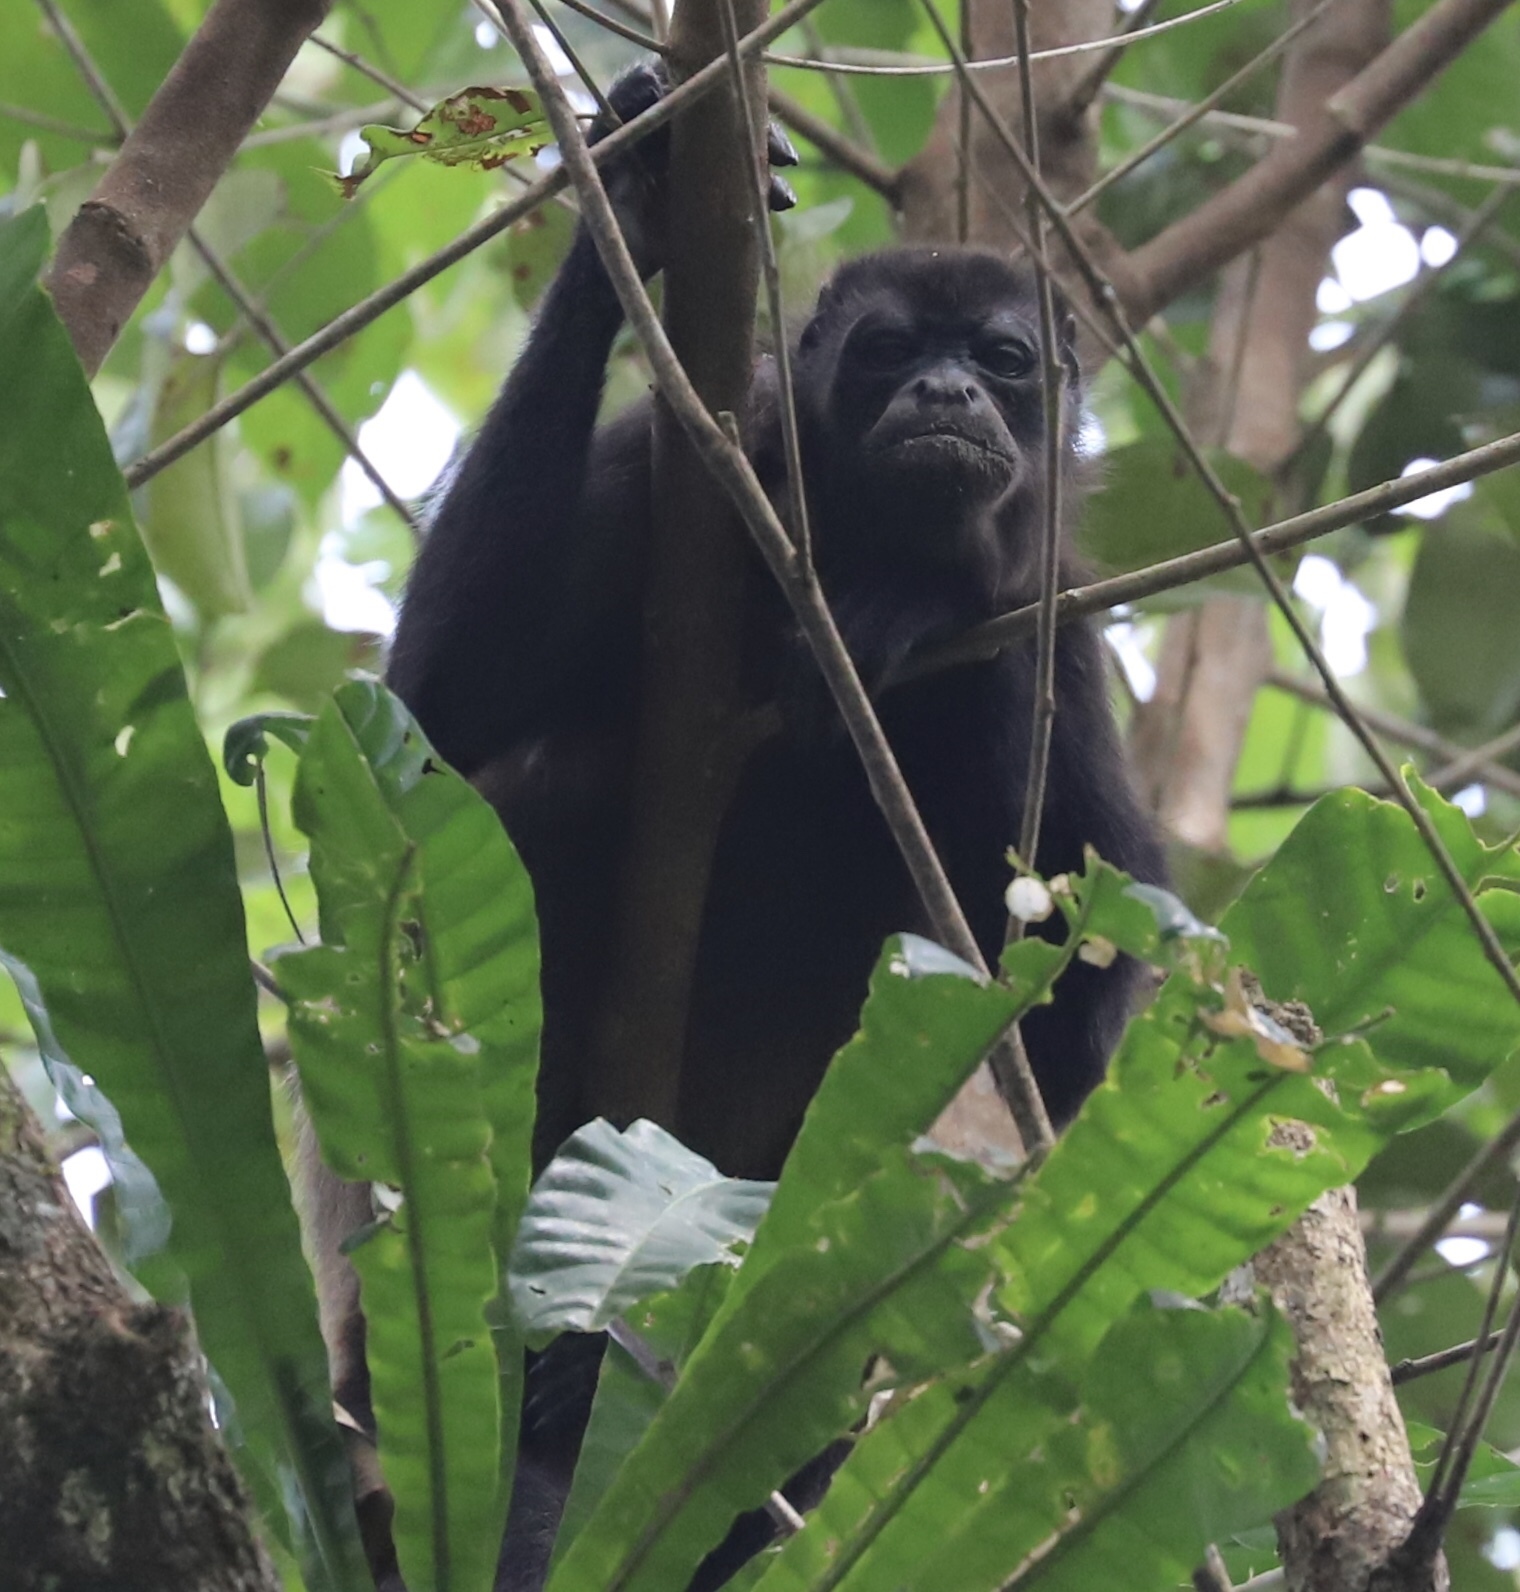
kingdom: Animalia
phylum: Chordata
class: Mammalia
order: Primates
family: Atelidae
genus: Alouatta
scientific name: Alouatta palliata
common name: Mantled howler
